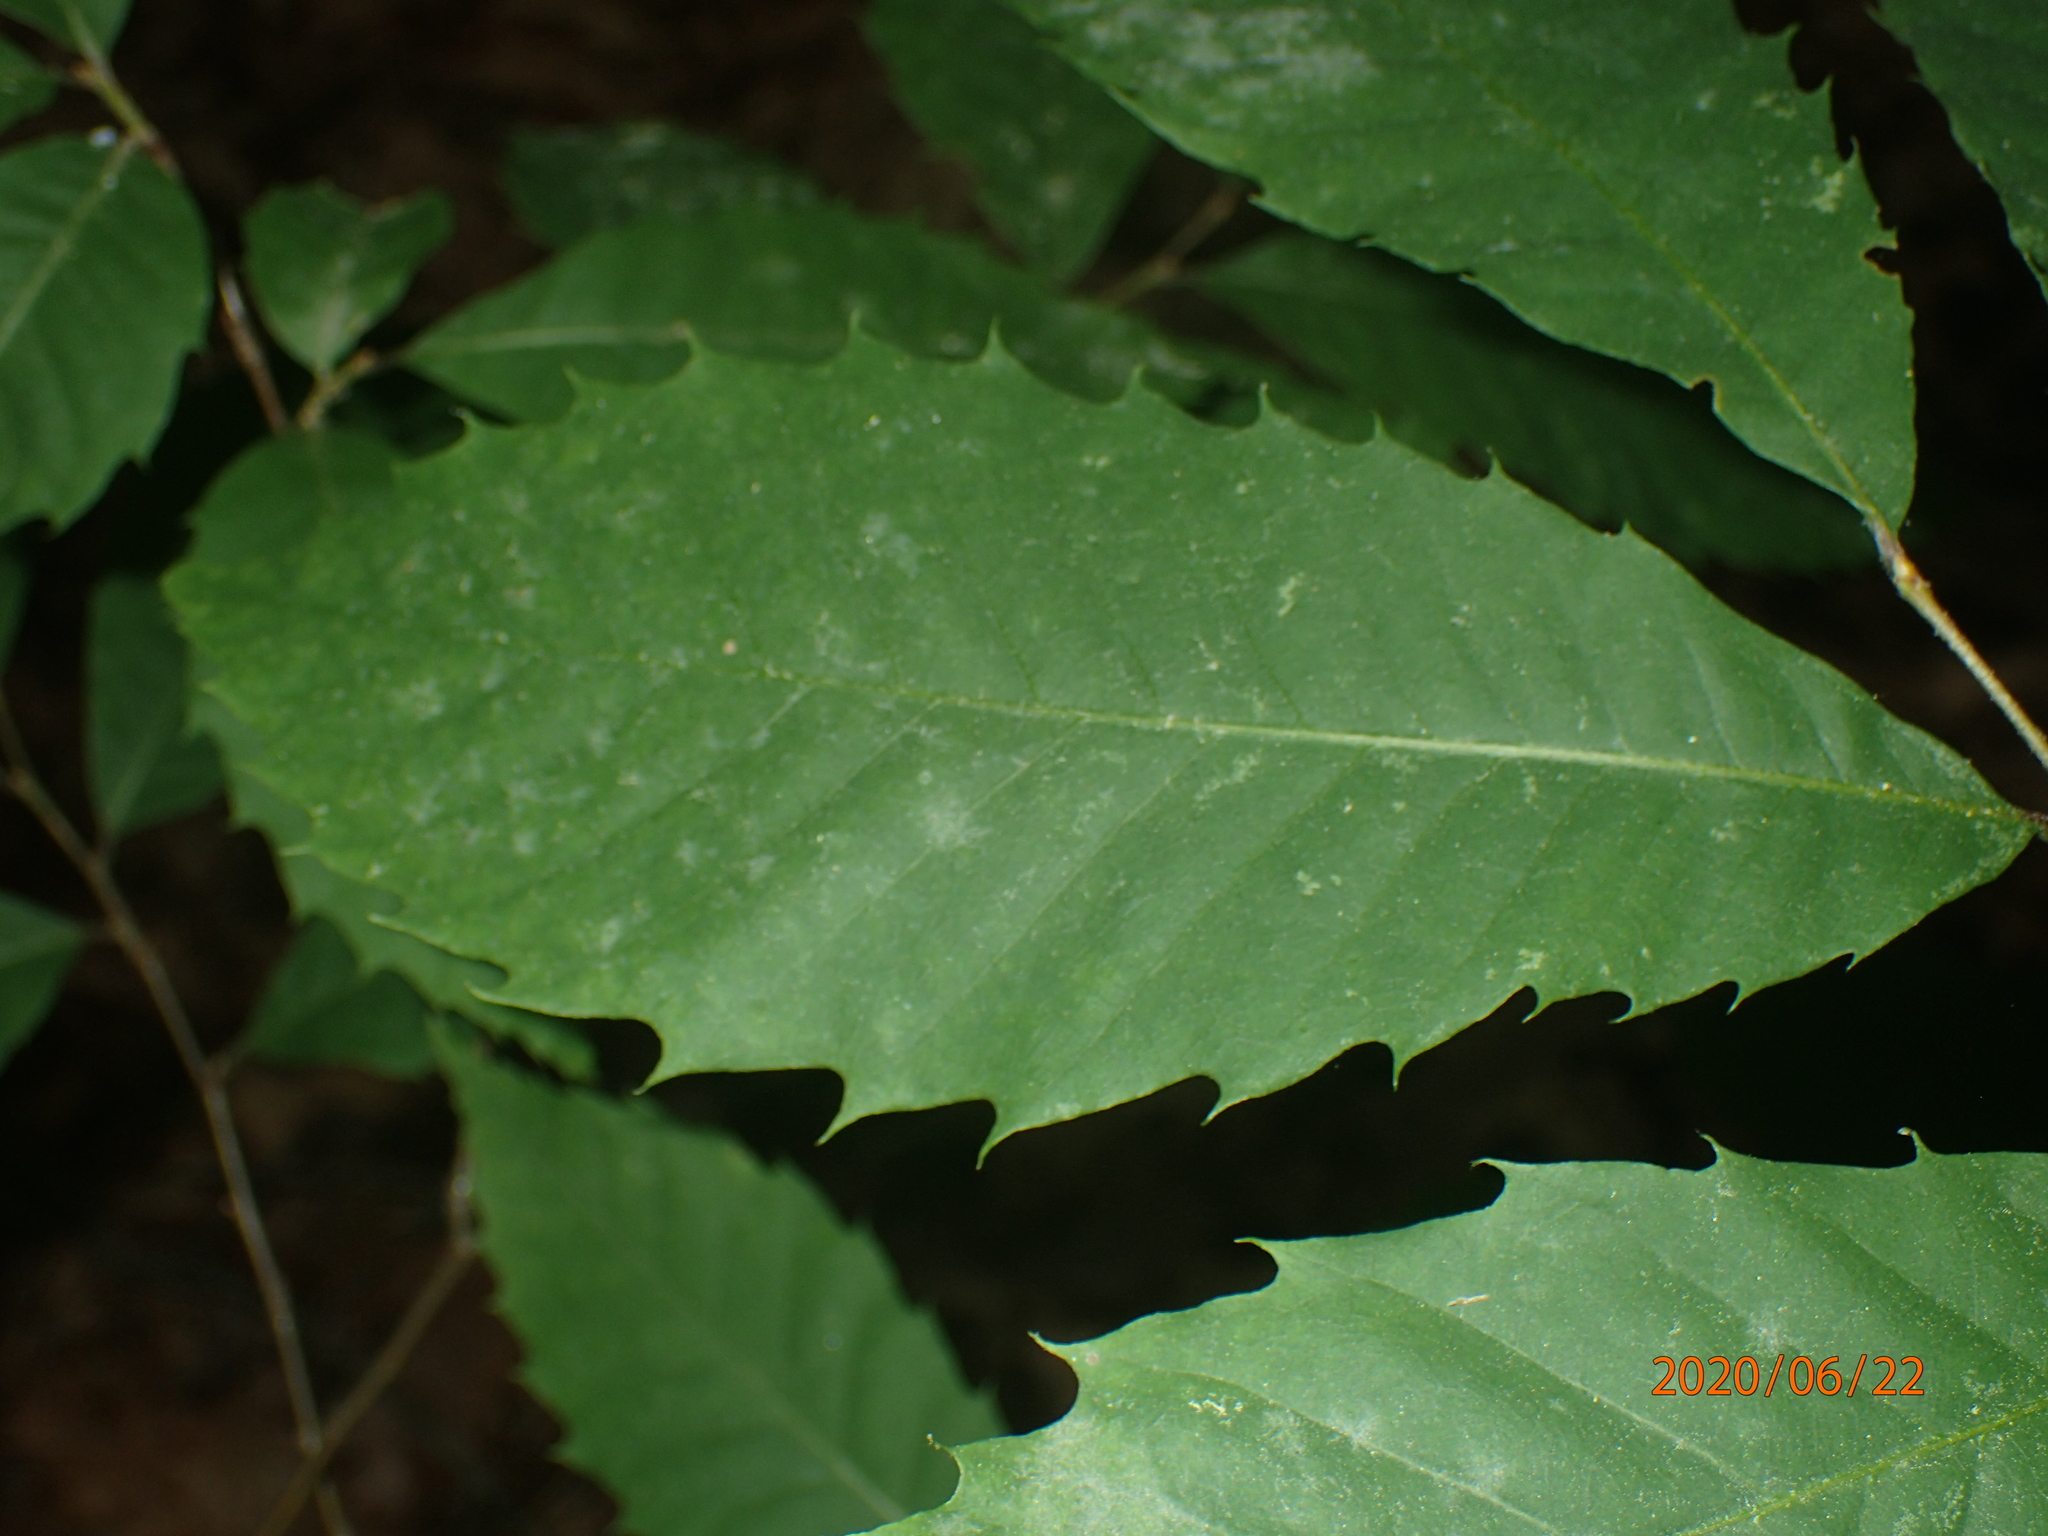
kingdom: Plantae
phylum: Tracheophyta
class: Magnoliopsida
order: Fagales
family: Fagaceae
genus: Castanea
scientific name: Castanea dentata
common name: American chestnut
